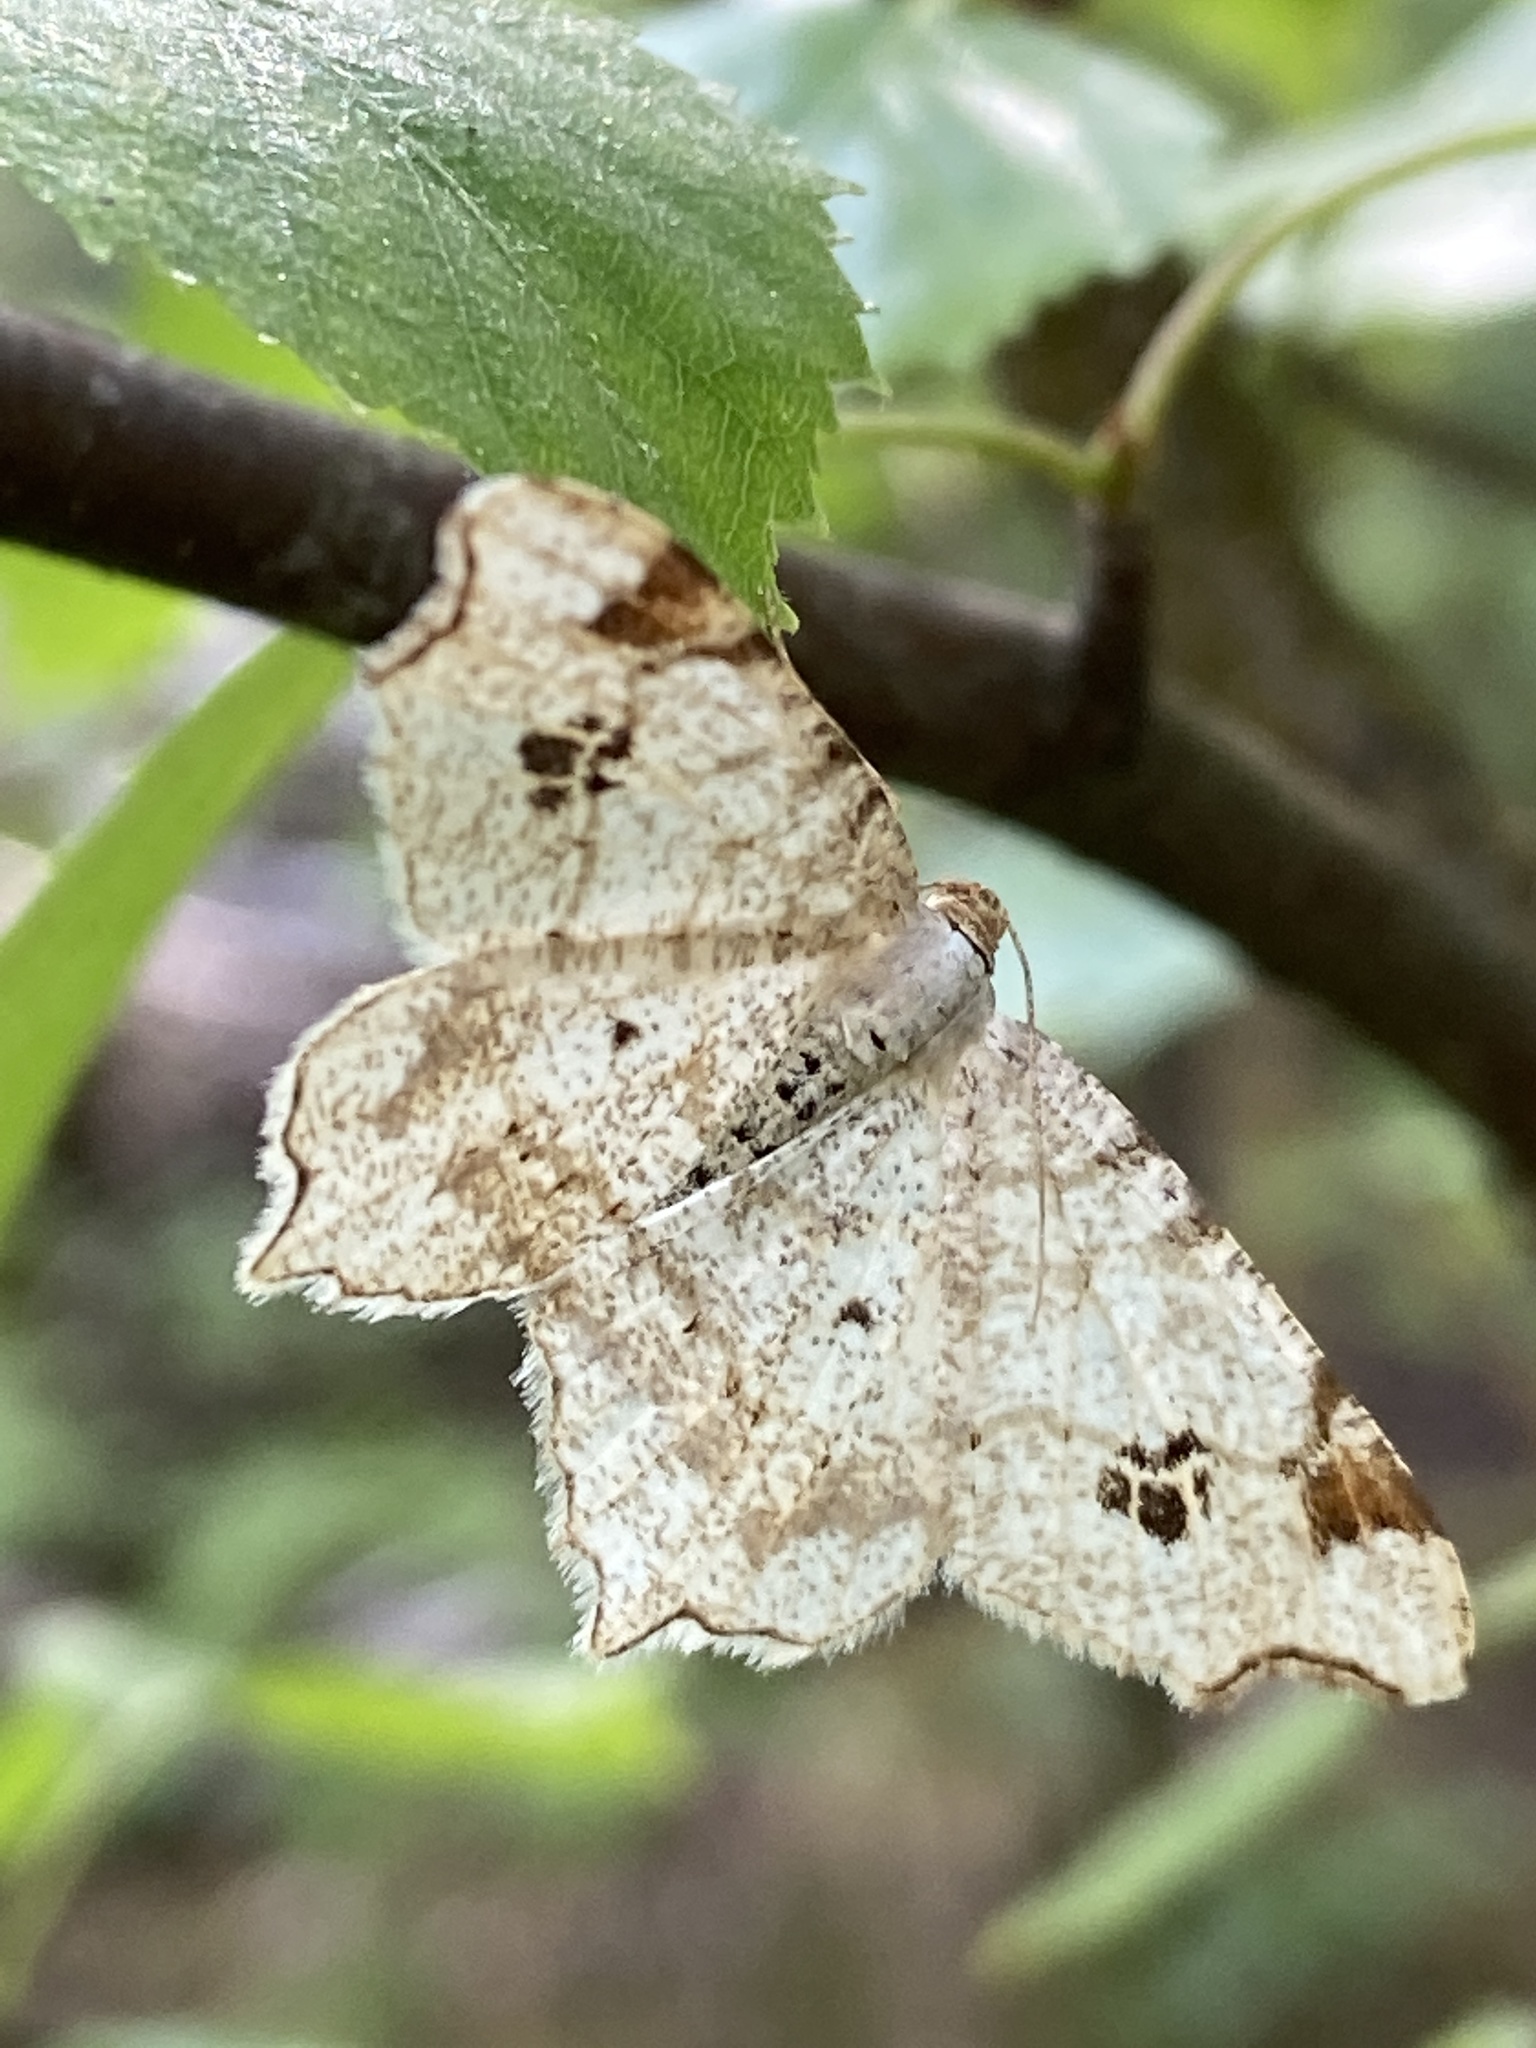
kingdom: Animalia
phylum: Arthropoda
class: Insecta
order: Lepidoptera
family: Geometridae
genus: Macaria
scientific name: Macaria notata
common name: Peacock moth
